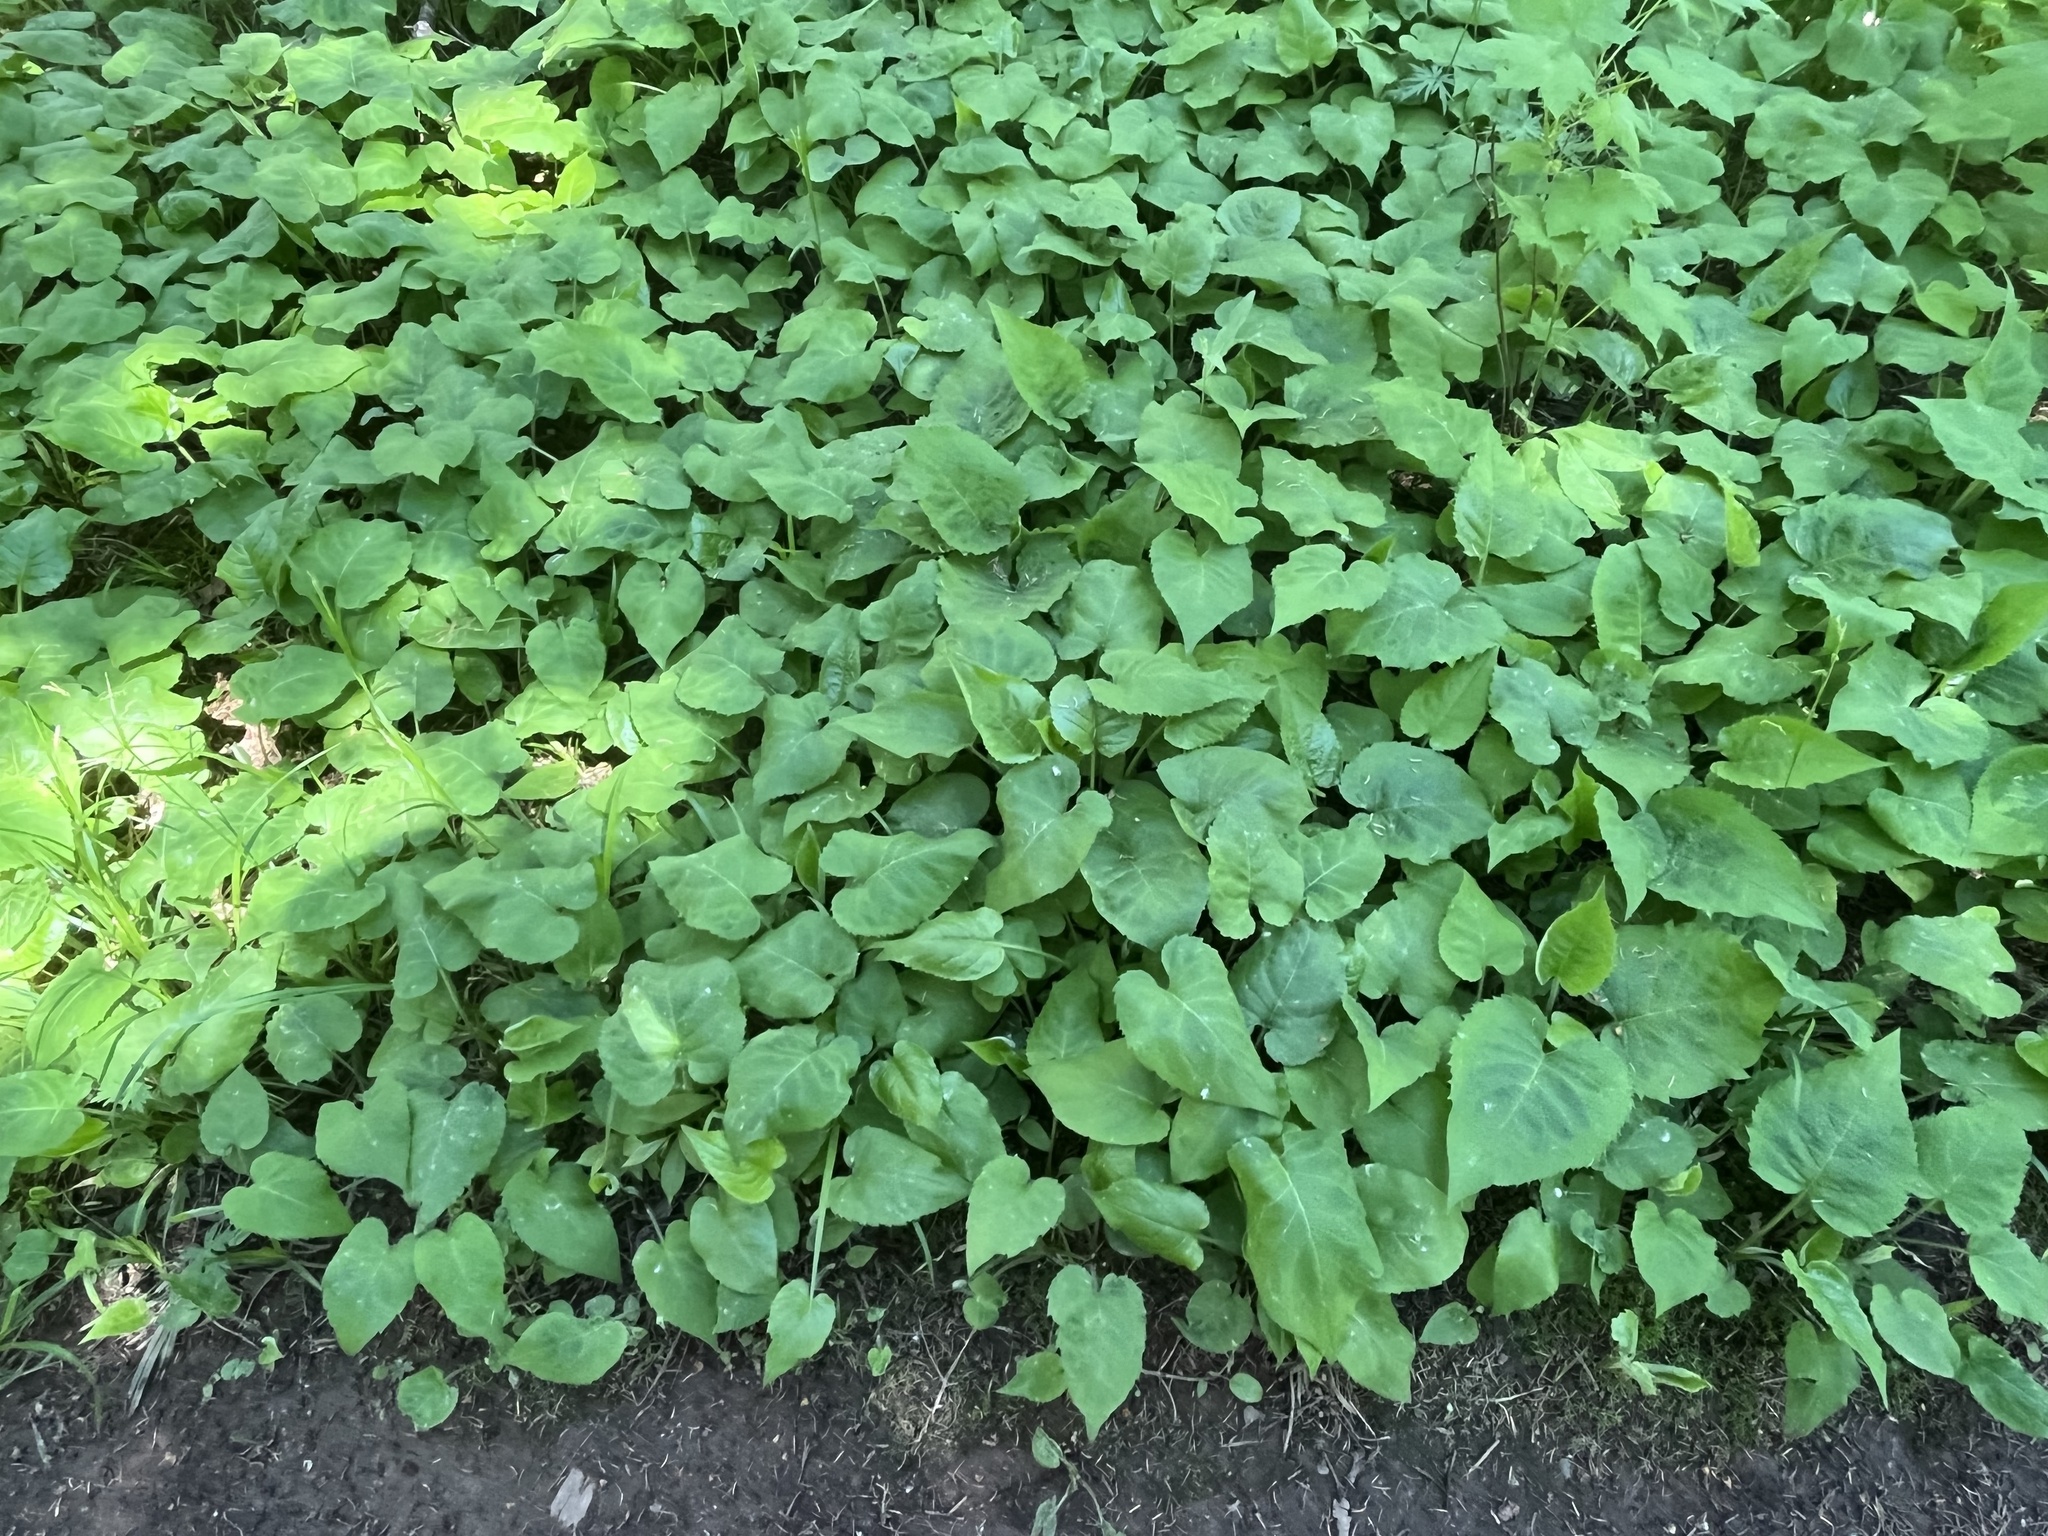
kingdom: Plantae
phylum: Tracheophyta
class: Magnoliopsida
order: Asterales
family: Asteraceae
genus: Eurybia
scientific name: Eurybia macrophylla
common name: Big-leaved aster
